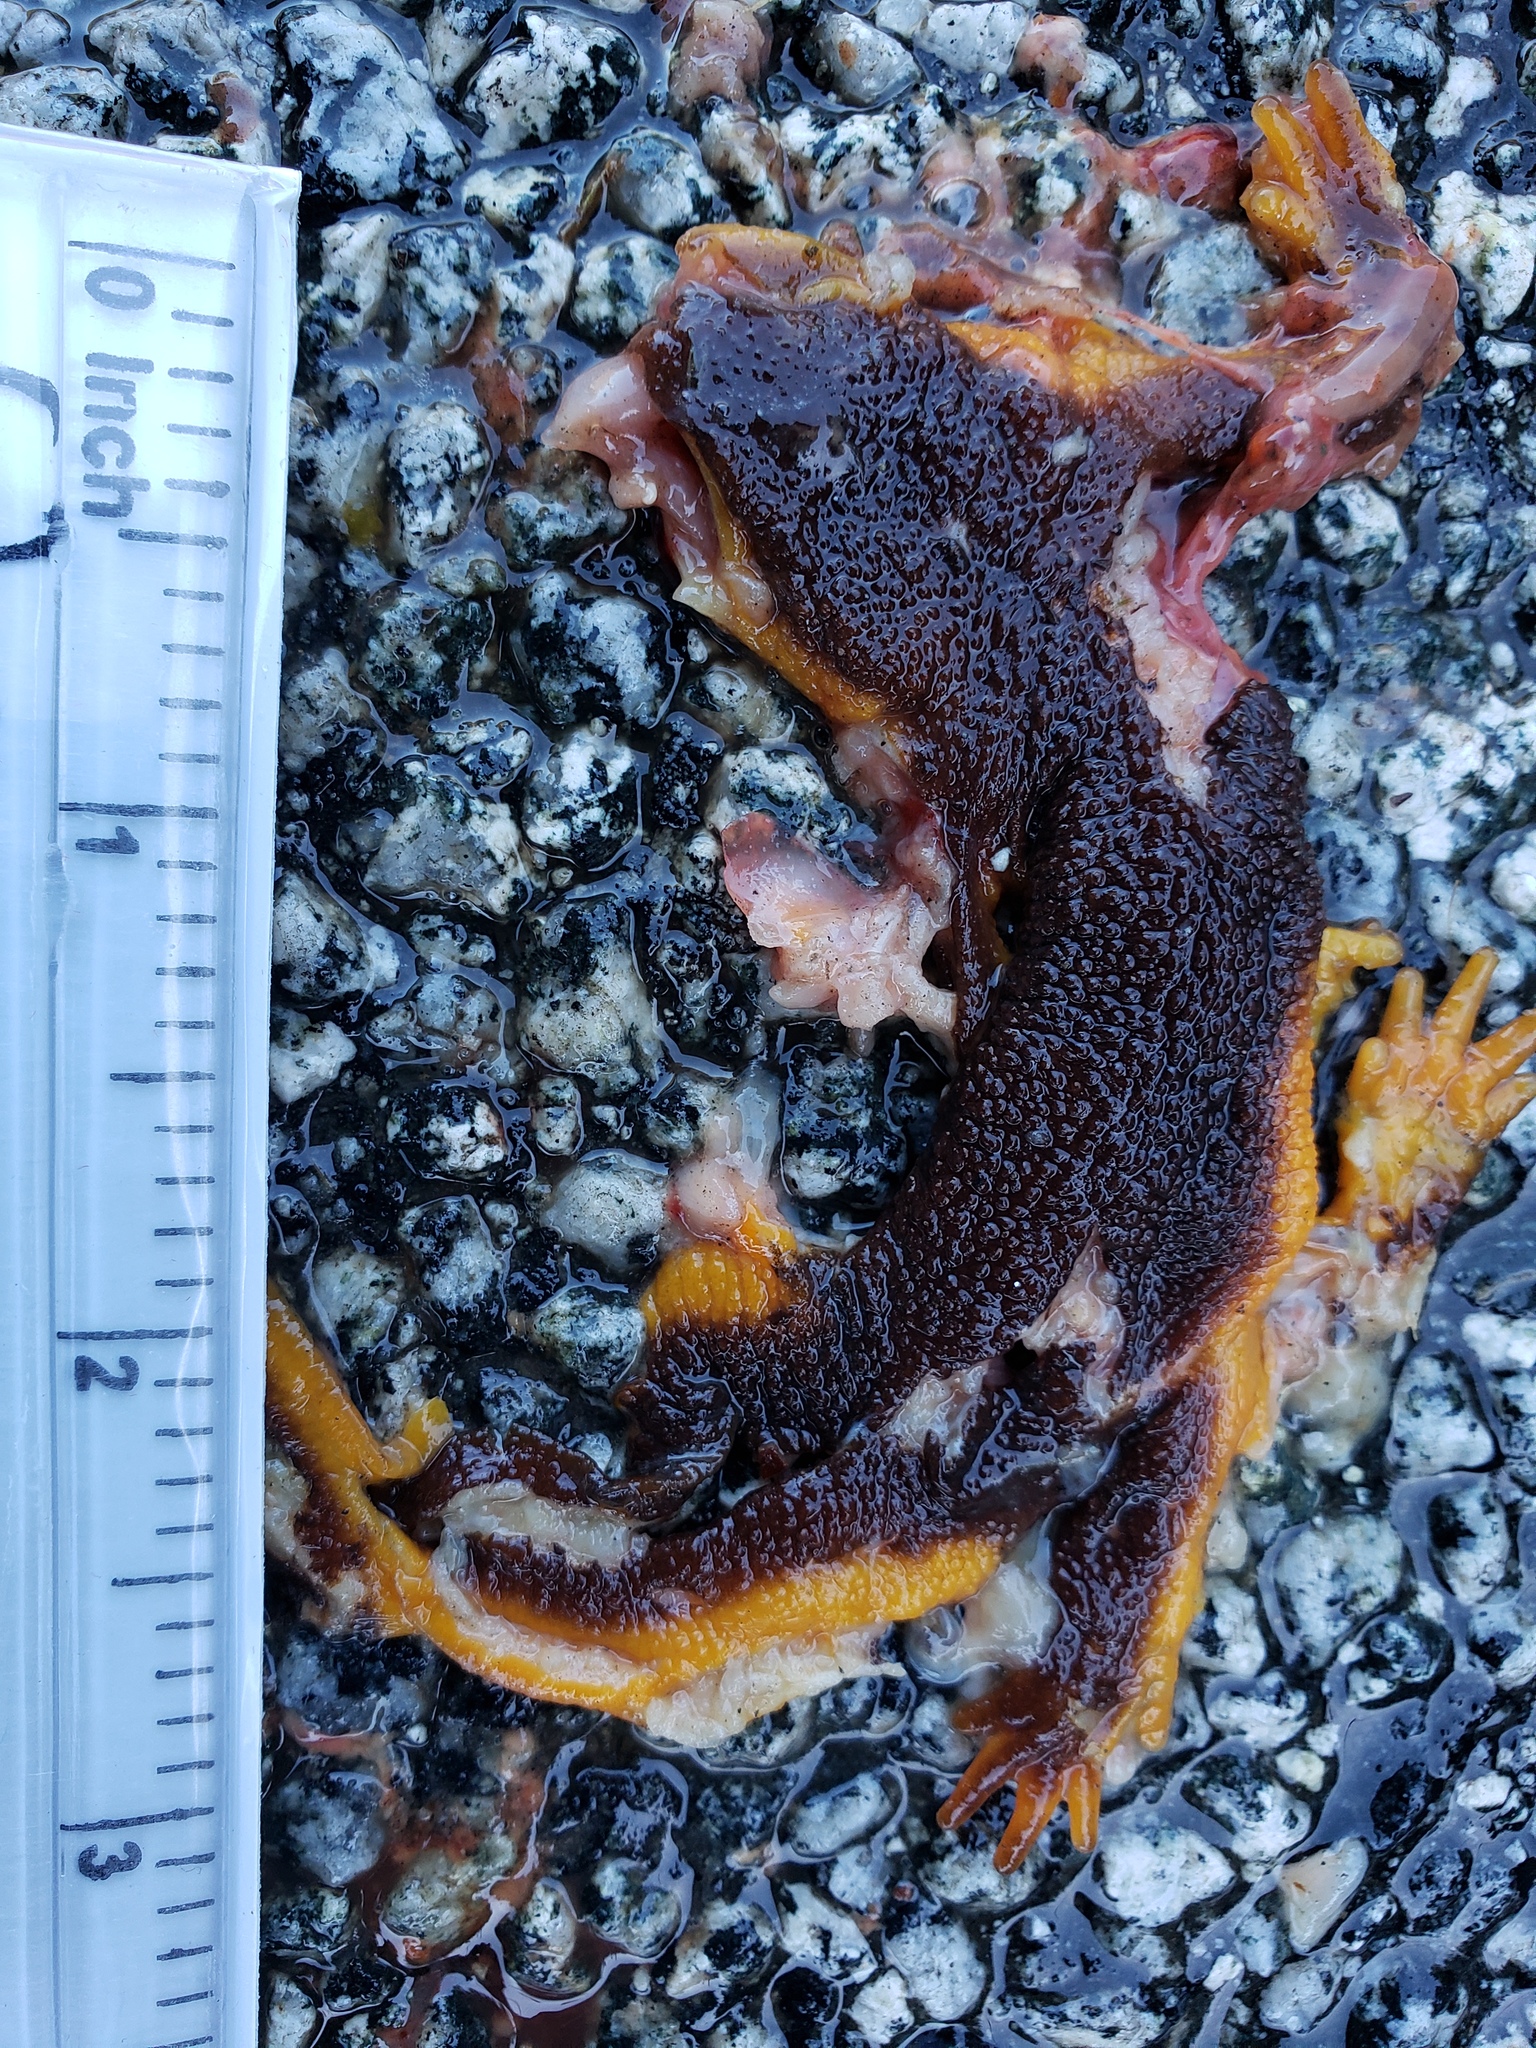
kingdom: Animalia
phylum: Chordata
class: Amphibia
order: Caudata
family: Salamandridae
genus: Taricha
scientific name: Taricha
